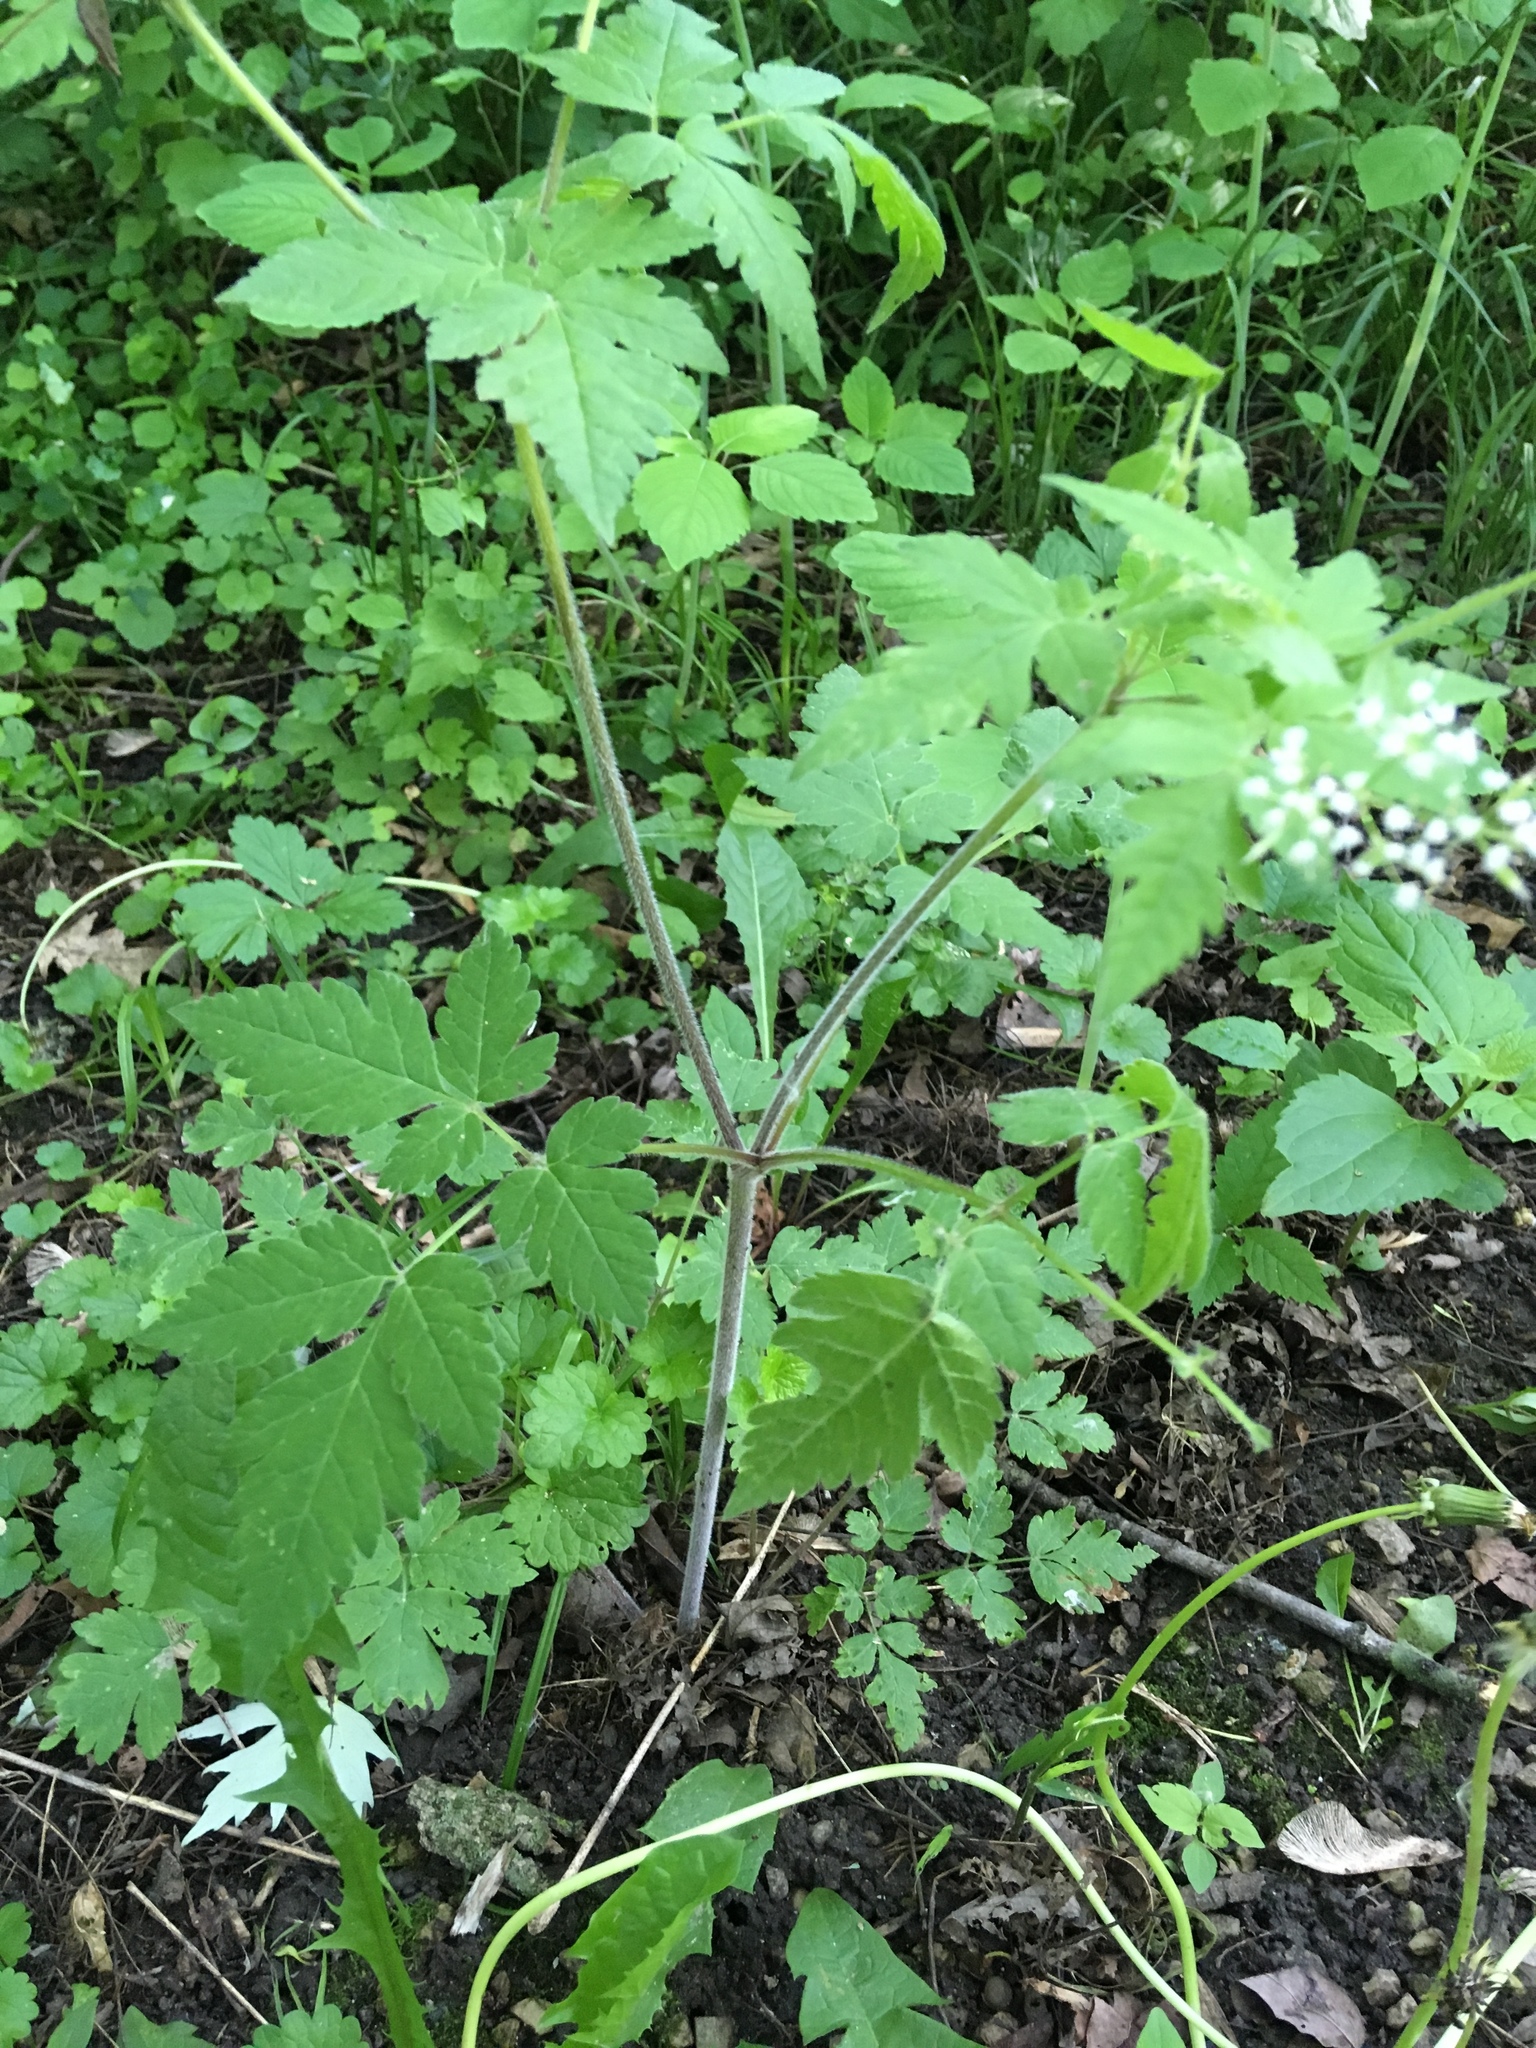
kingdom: Plantae
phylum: Tracheophyta
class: Magnoliopsida
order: Apiales
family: Apiaceae
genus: Osmorhiza
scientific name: Osmorhiza longistylis
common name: Smooth sweet cicely
